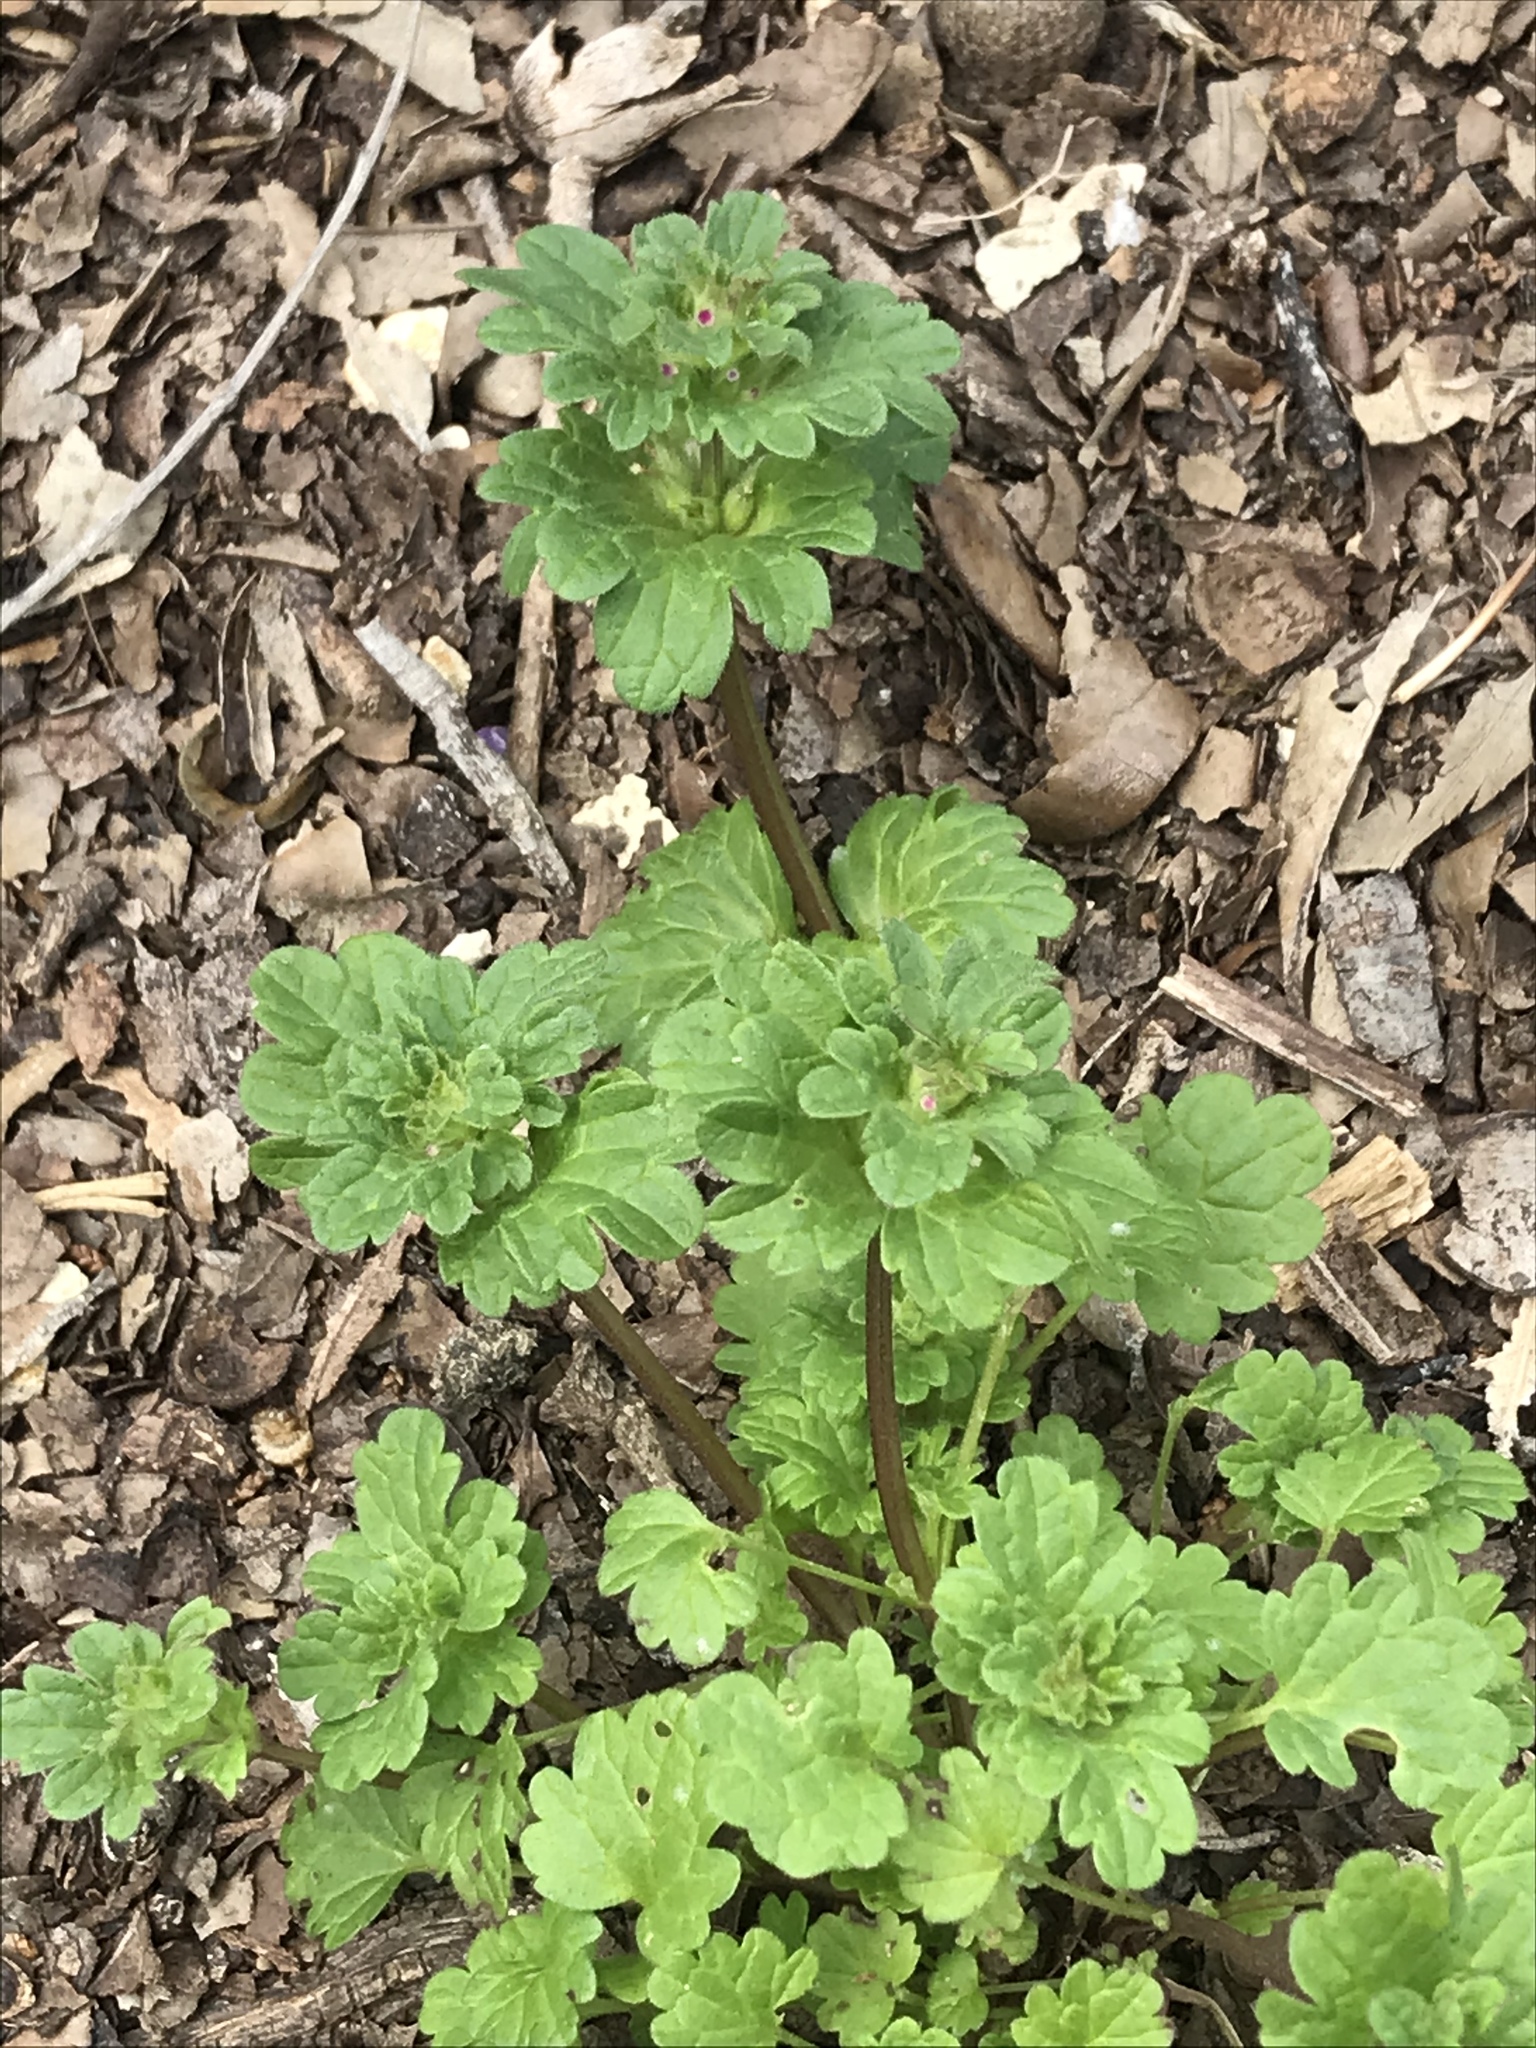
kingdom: Plantae
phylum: Tracheophyta
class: Magnoliopsida
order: Lamiales
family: Lamiaceae
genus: Lamium
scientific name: Lamium amplexicaule
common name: Henbit dead-nettle
